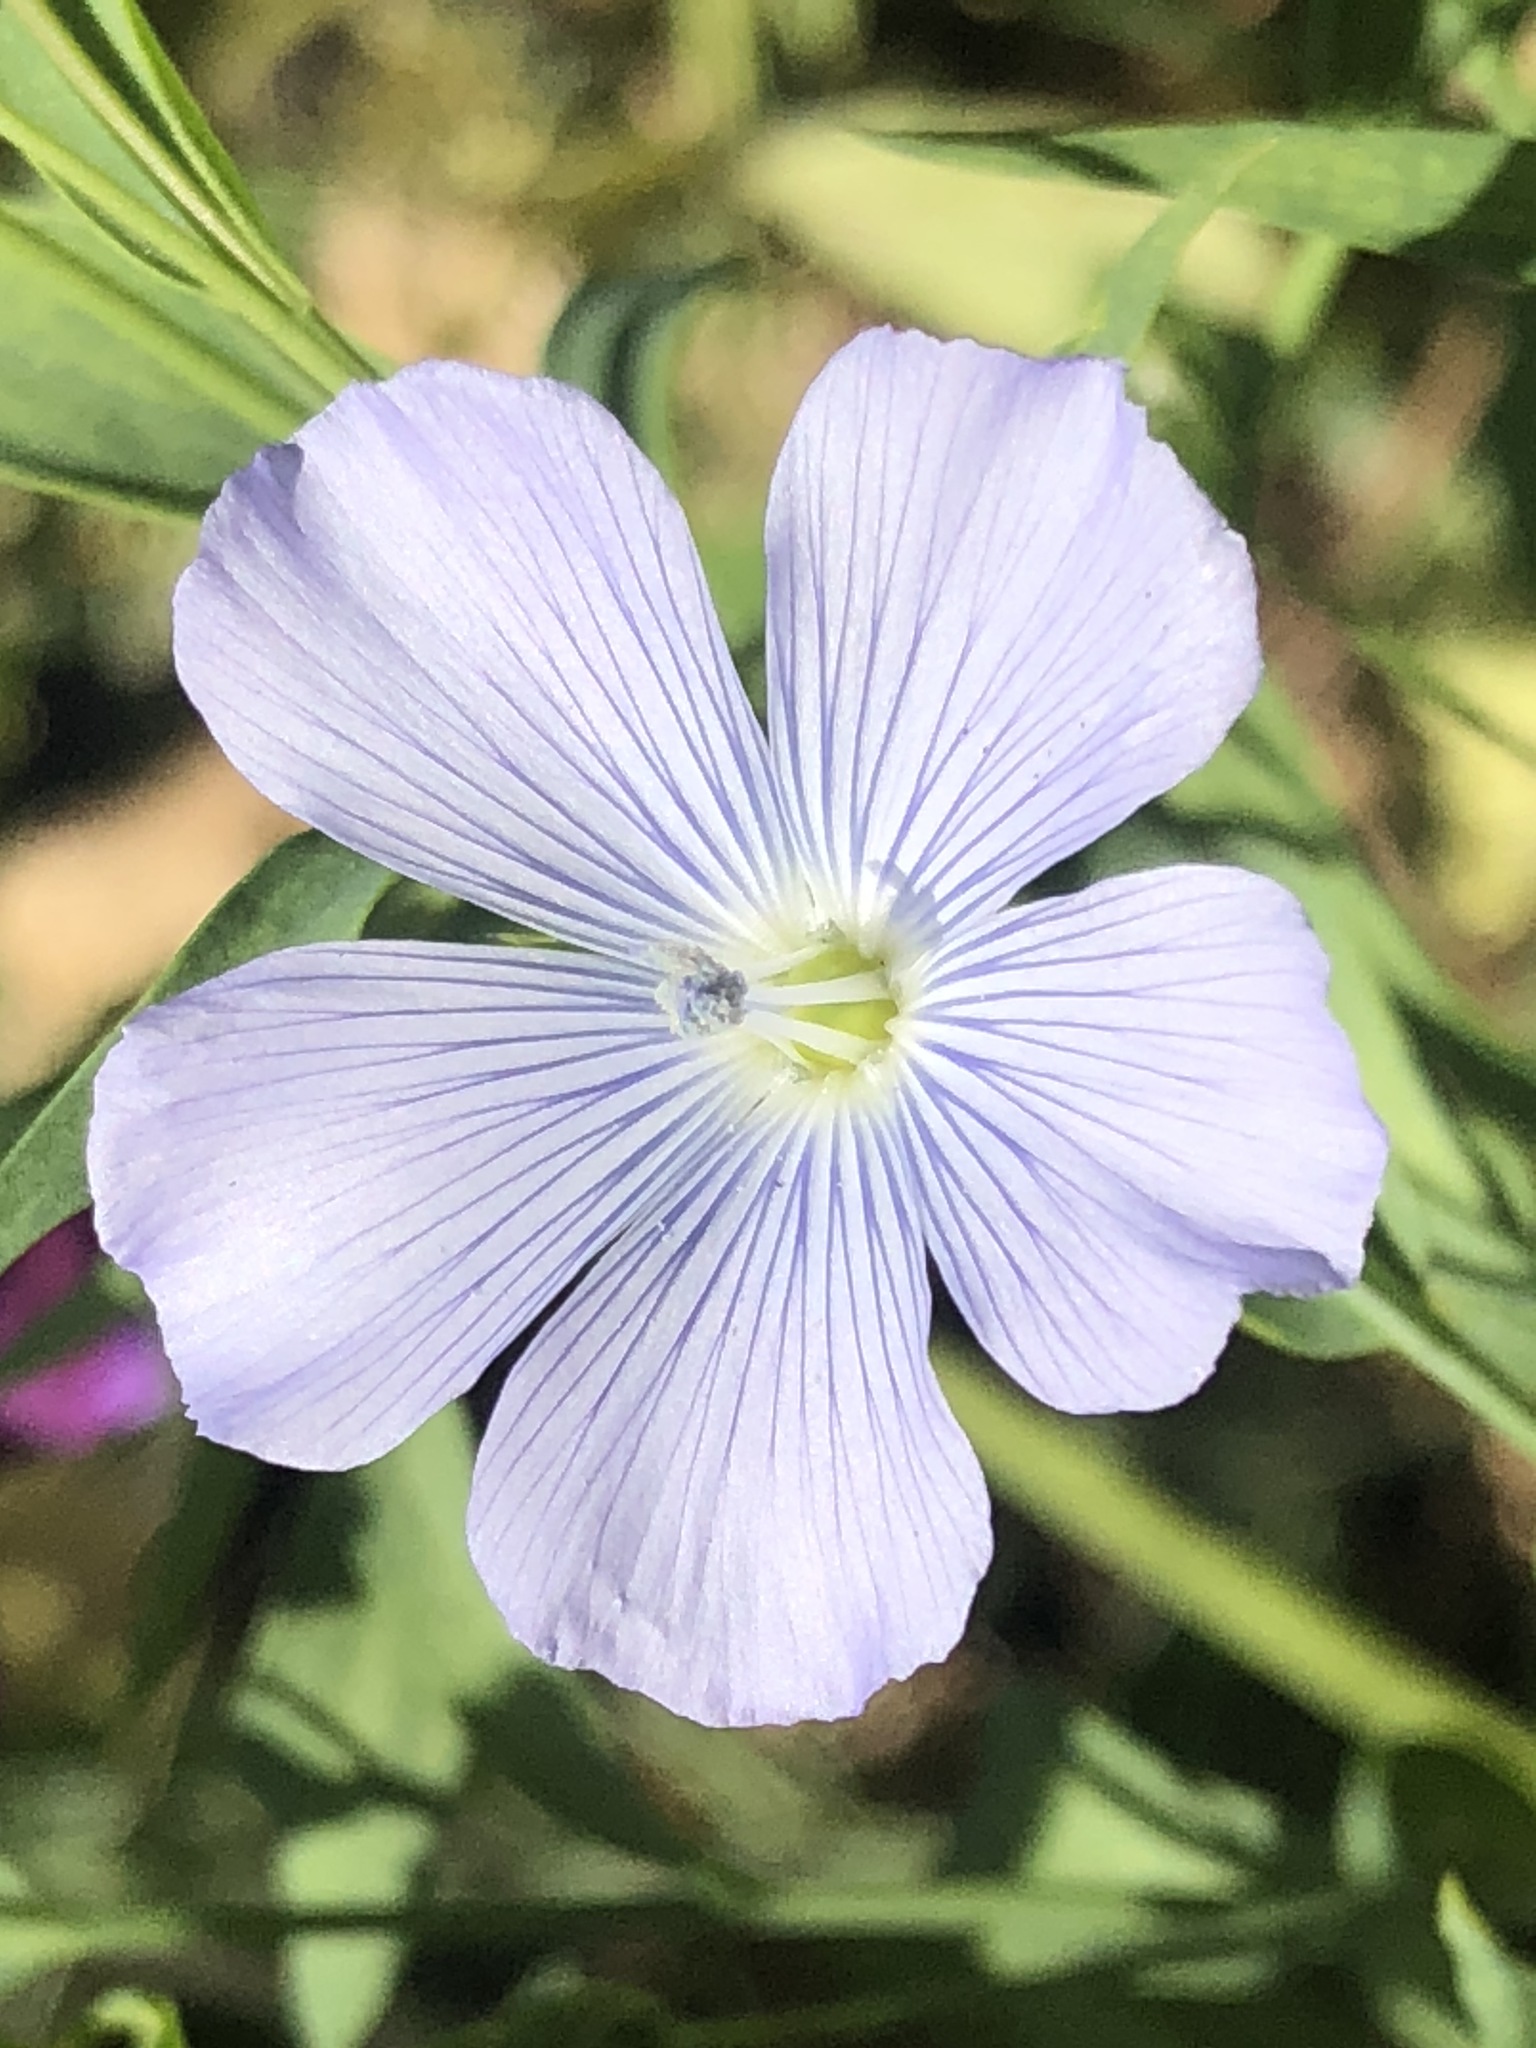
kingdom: Plantae
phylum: Tracheophyta
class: Magnoliopsida
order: Malpighiales
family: Linaceae
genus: Linum
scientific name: Linum usitatissimum
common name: Flax
